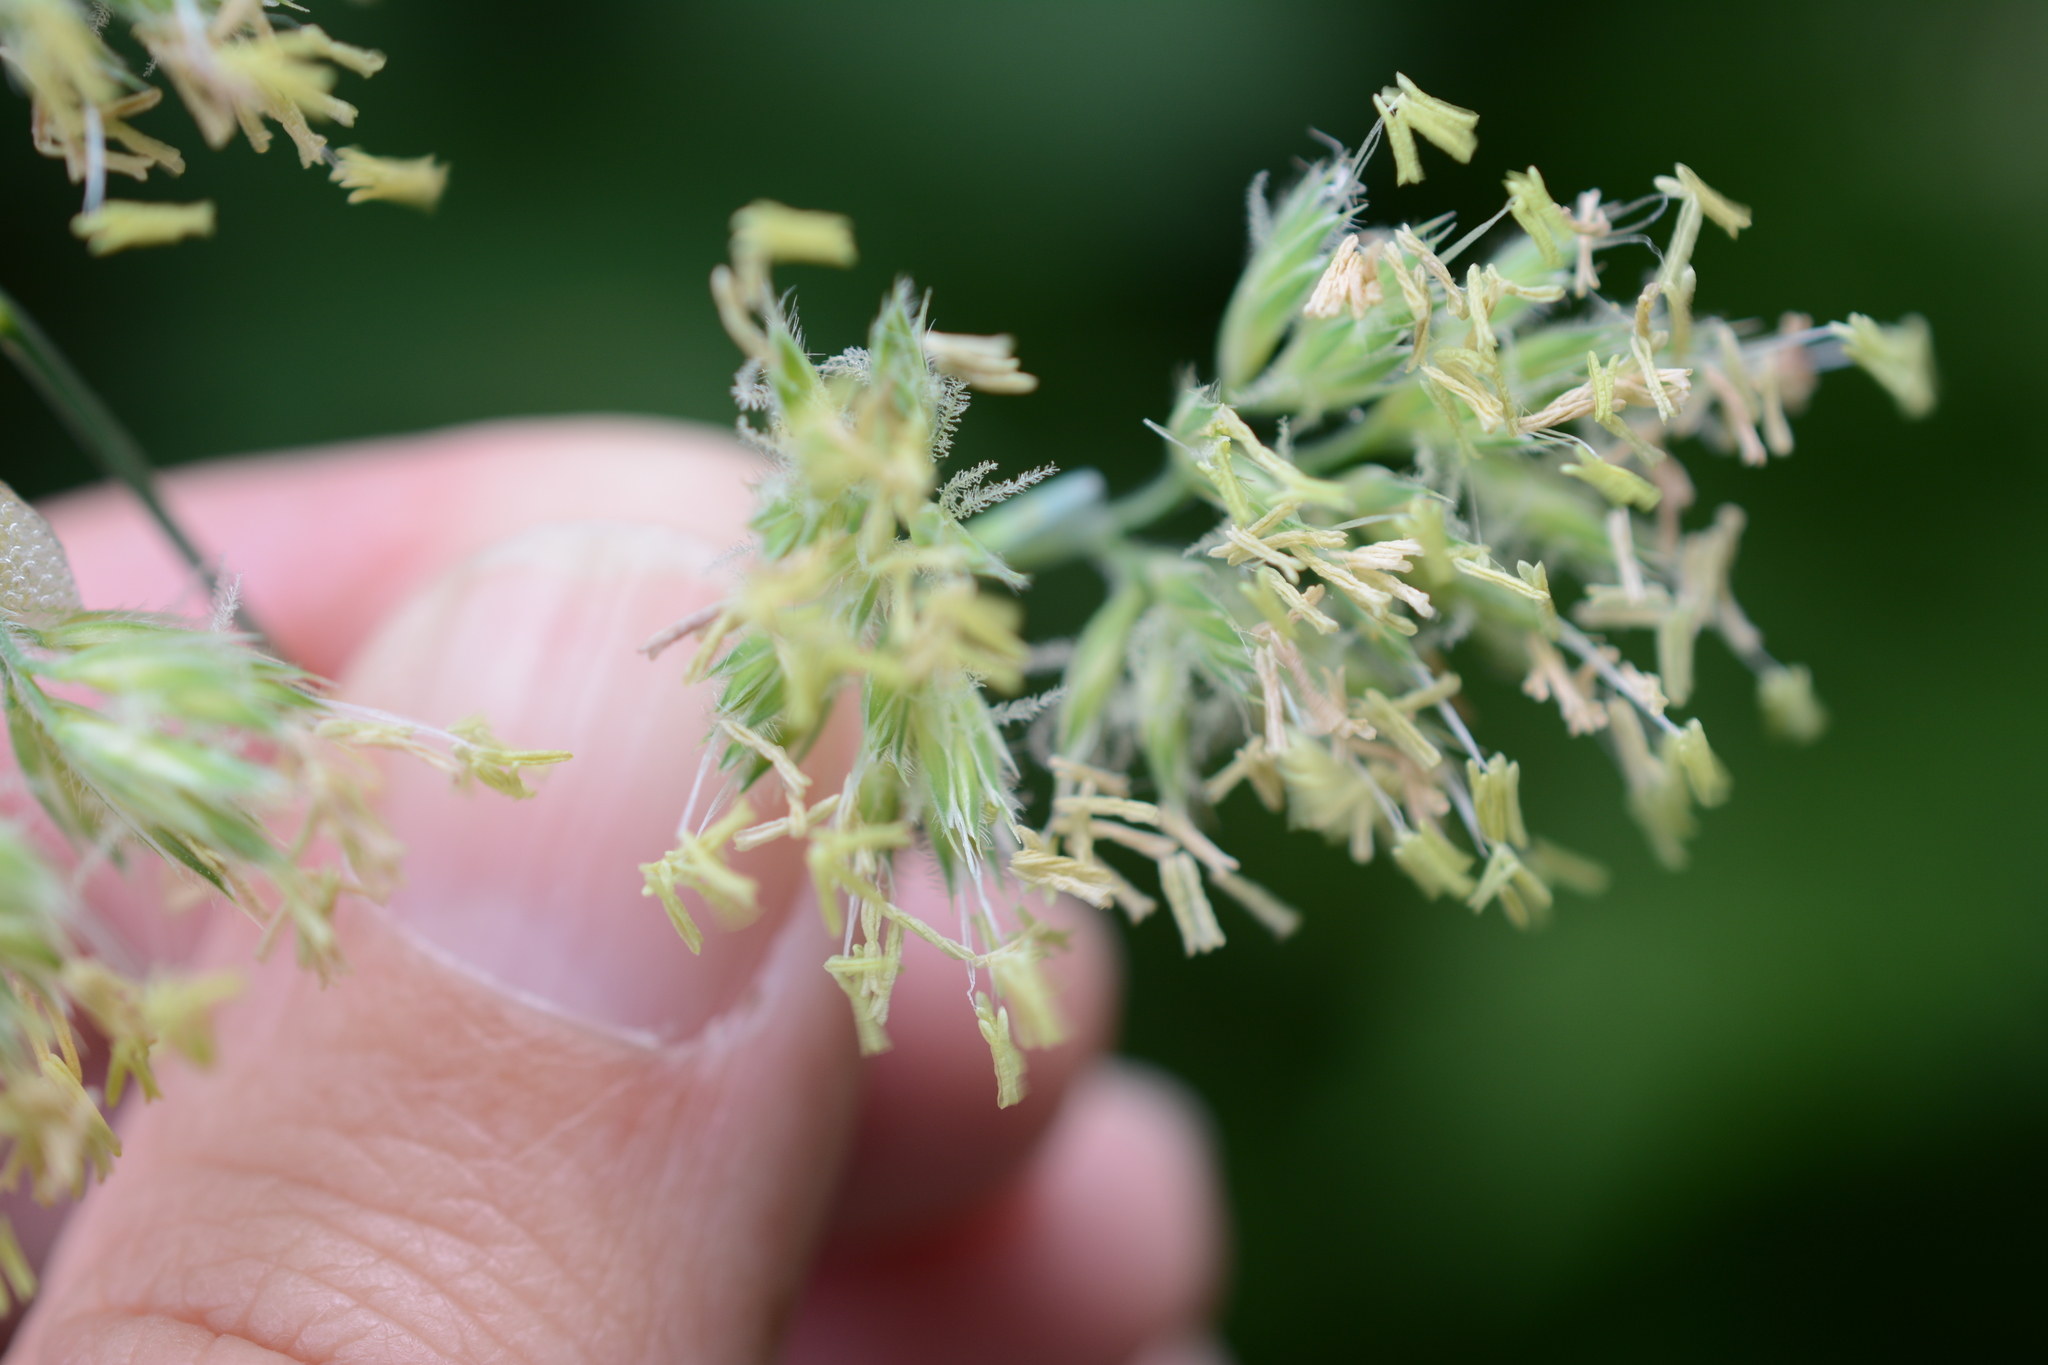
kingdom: Plantae
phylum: Tracheophyta
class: Liliopsida
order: Poales
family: Poaceae
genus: Dactylis
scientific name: Dactylis glomerata
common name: Orchardgrass
